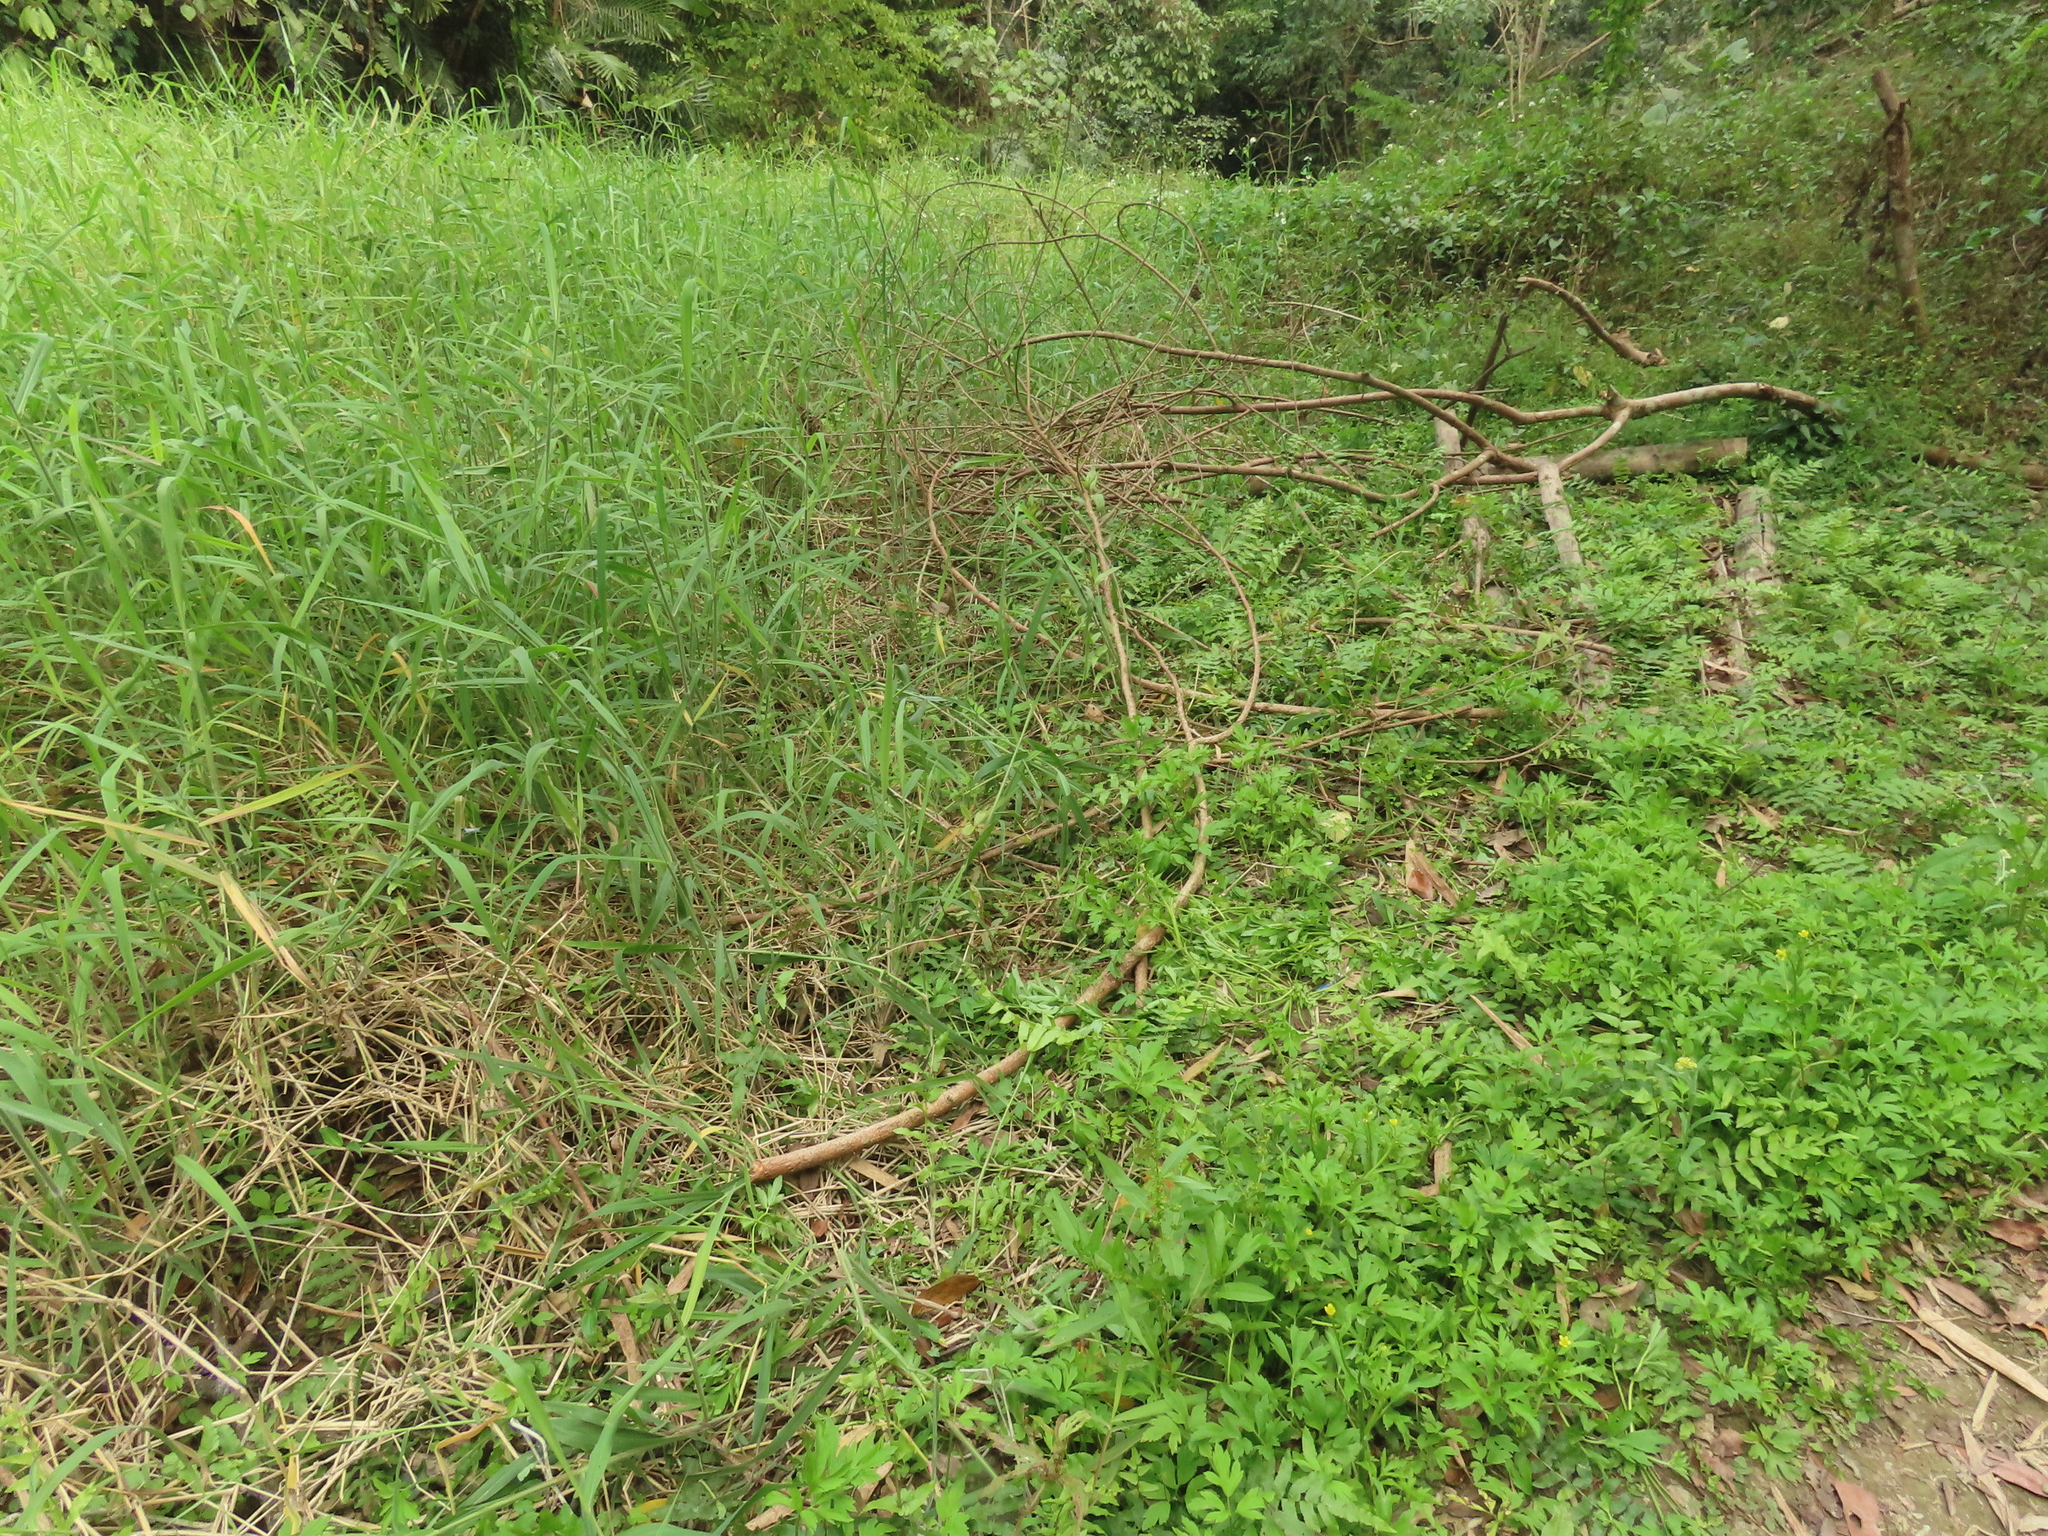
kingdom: Plantae
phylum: Tracheophyta
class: Magnoliopsida
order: Ranunculales
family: Ranunculaceae
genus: Ranunculus
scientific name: Ranunculus chinensis
